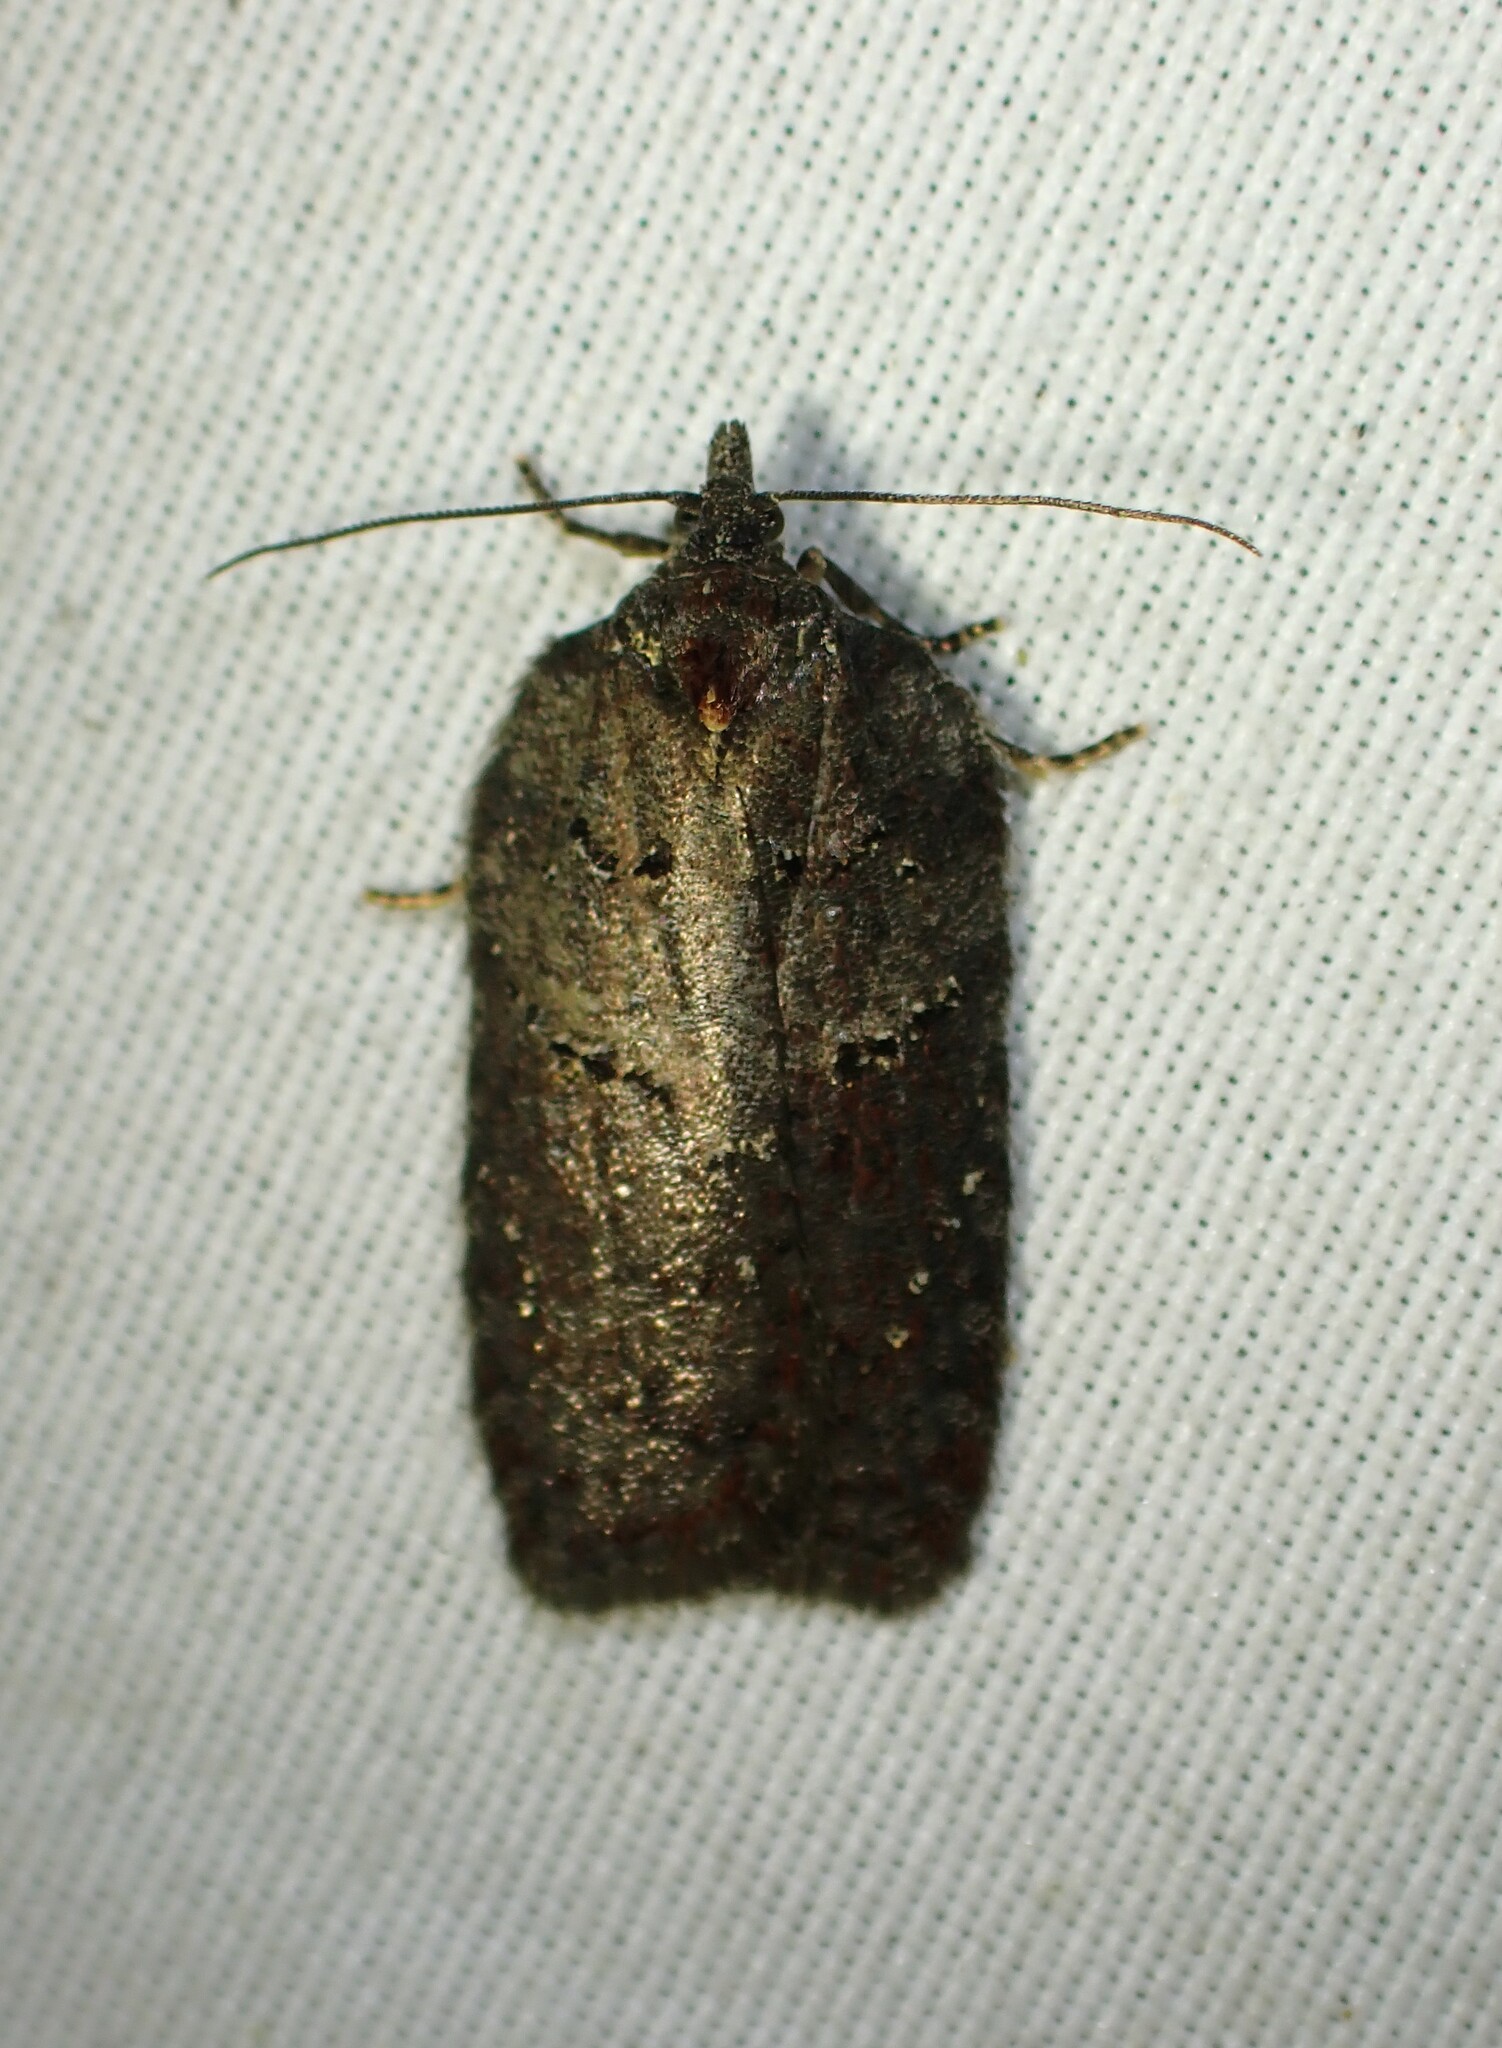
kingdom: Animalia
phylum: Arthropoda
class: Insecta
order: Lepidoptera
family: Tortricidae
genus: Acleris
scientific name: Acleris caliginosana
